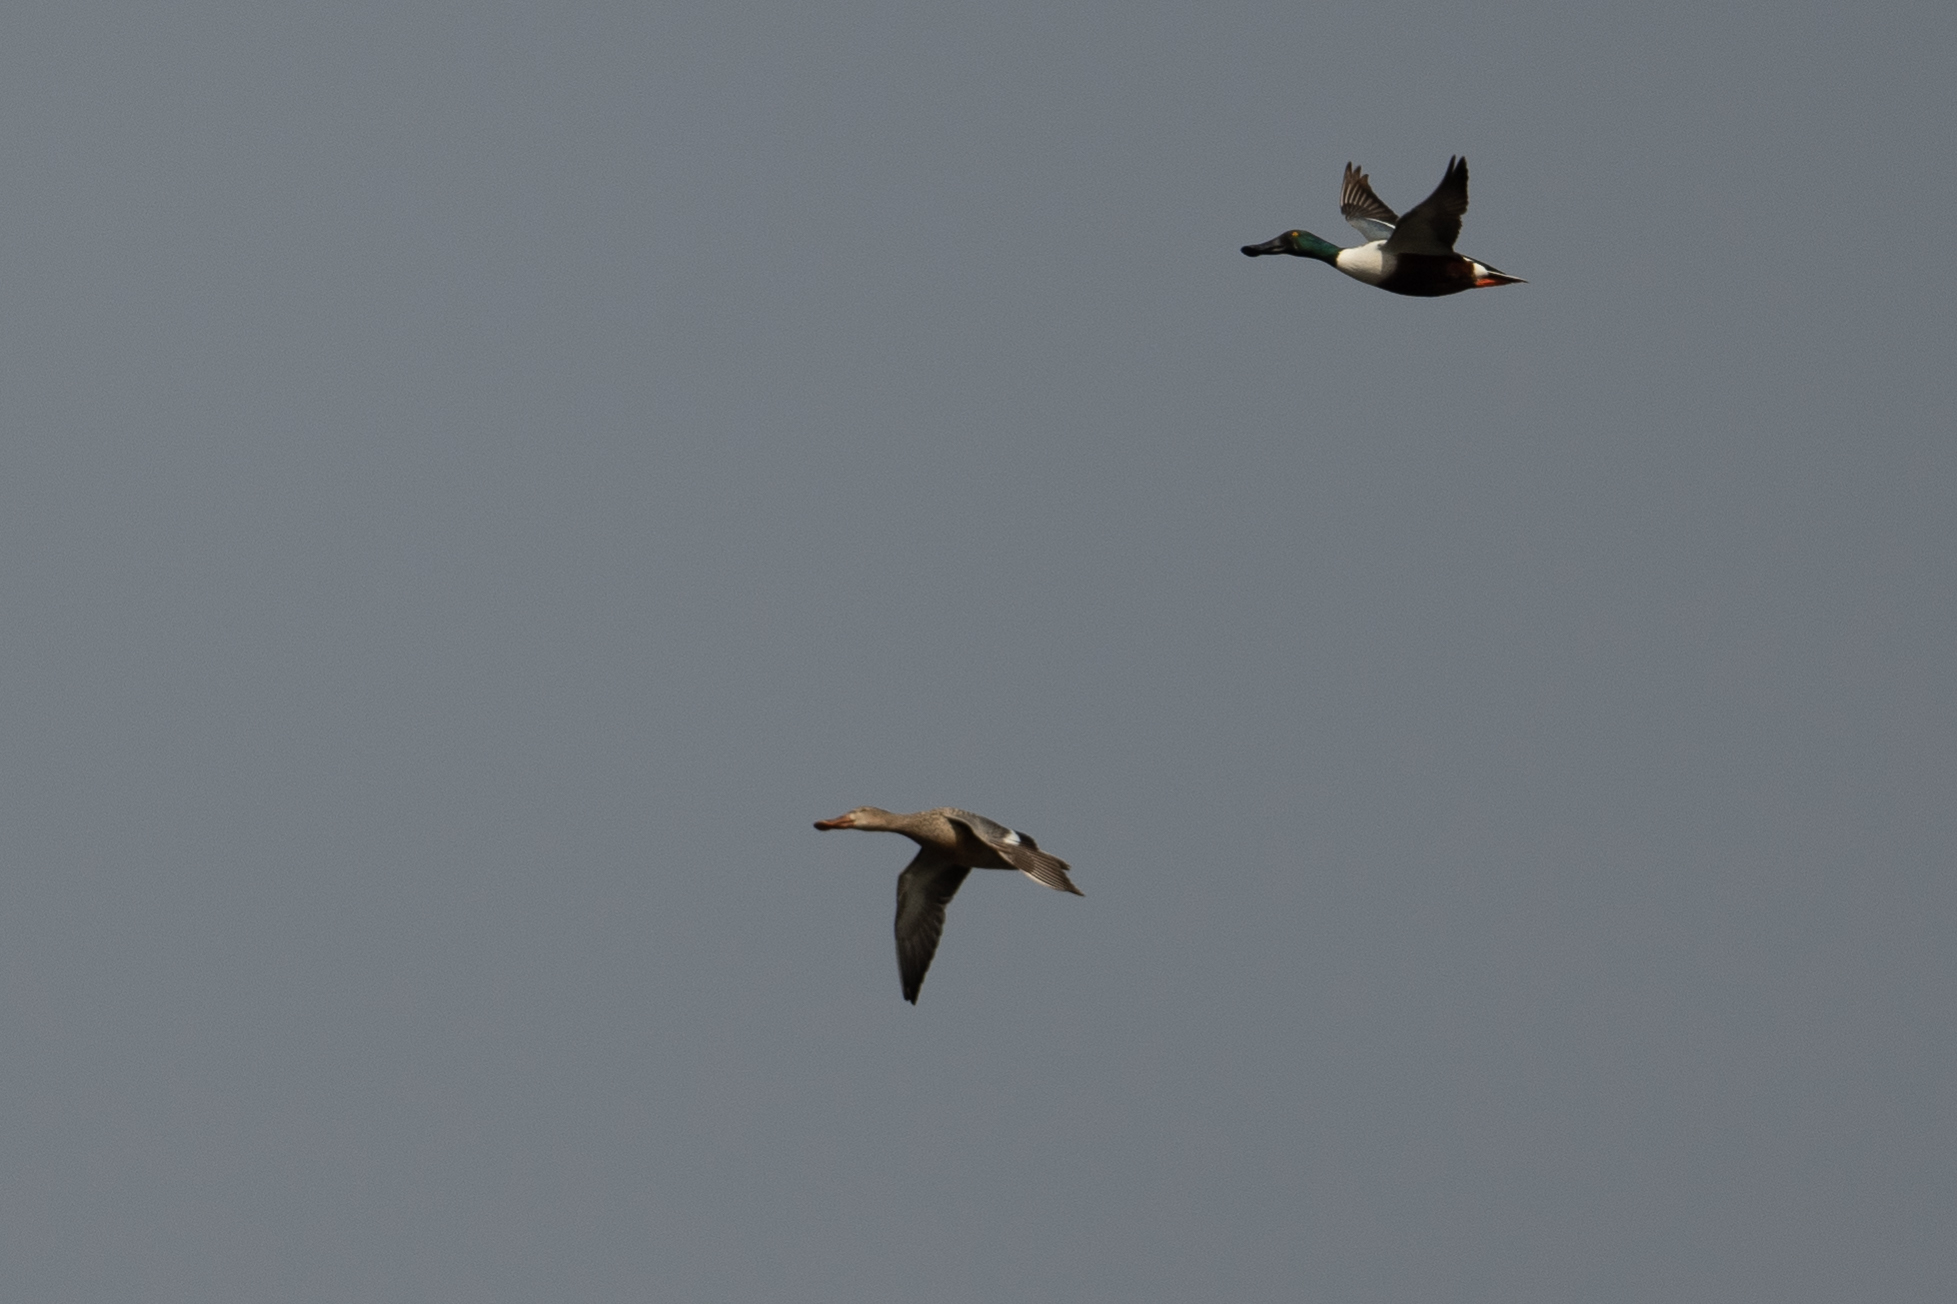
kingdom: Animalia
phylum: Chordata
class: Aves
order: Anseriformes
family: Anatidae
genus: Spatula
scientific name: Spatula clypeata
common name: Northern shoveler
